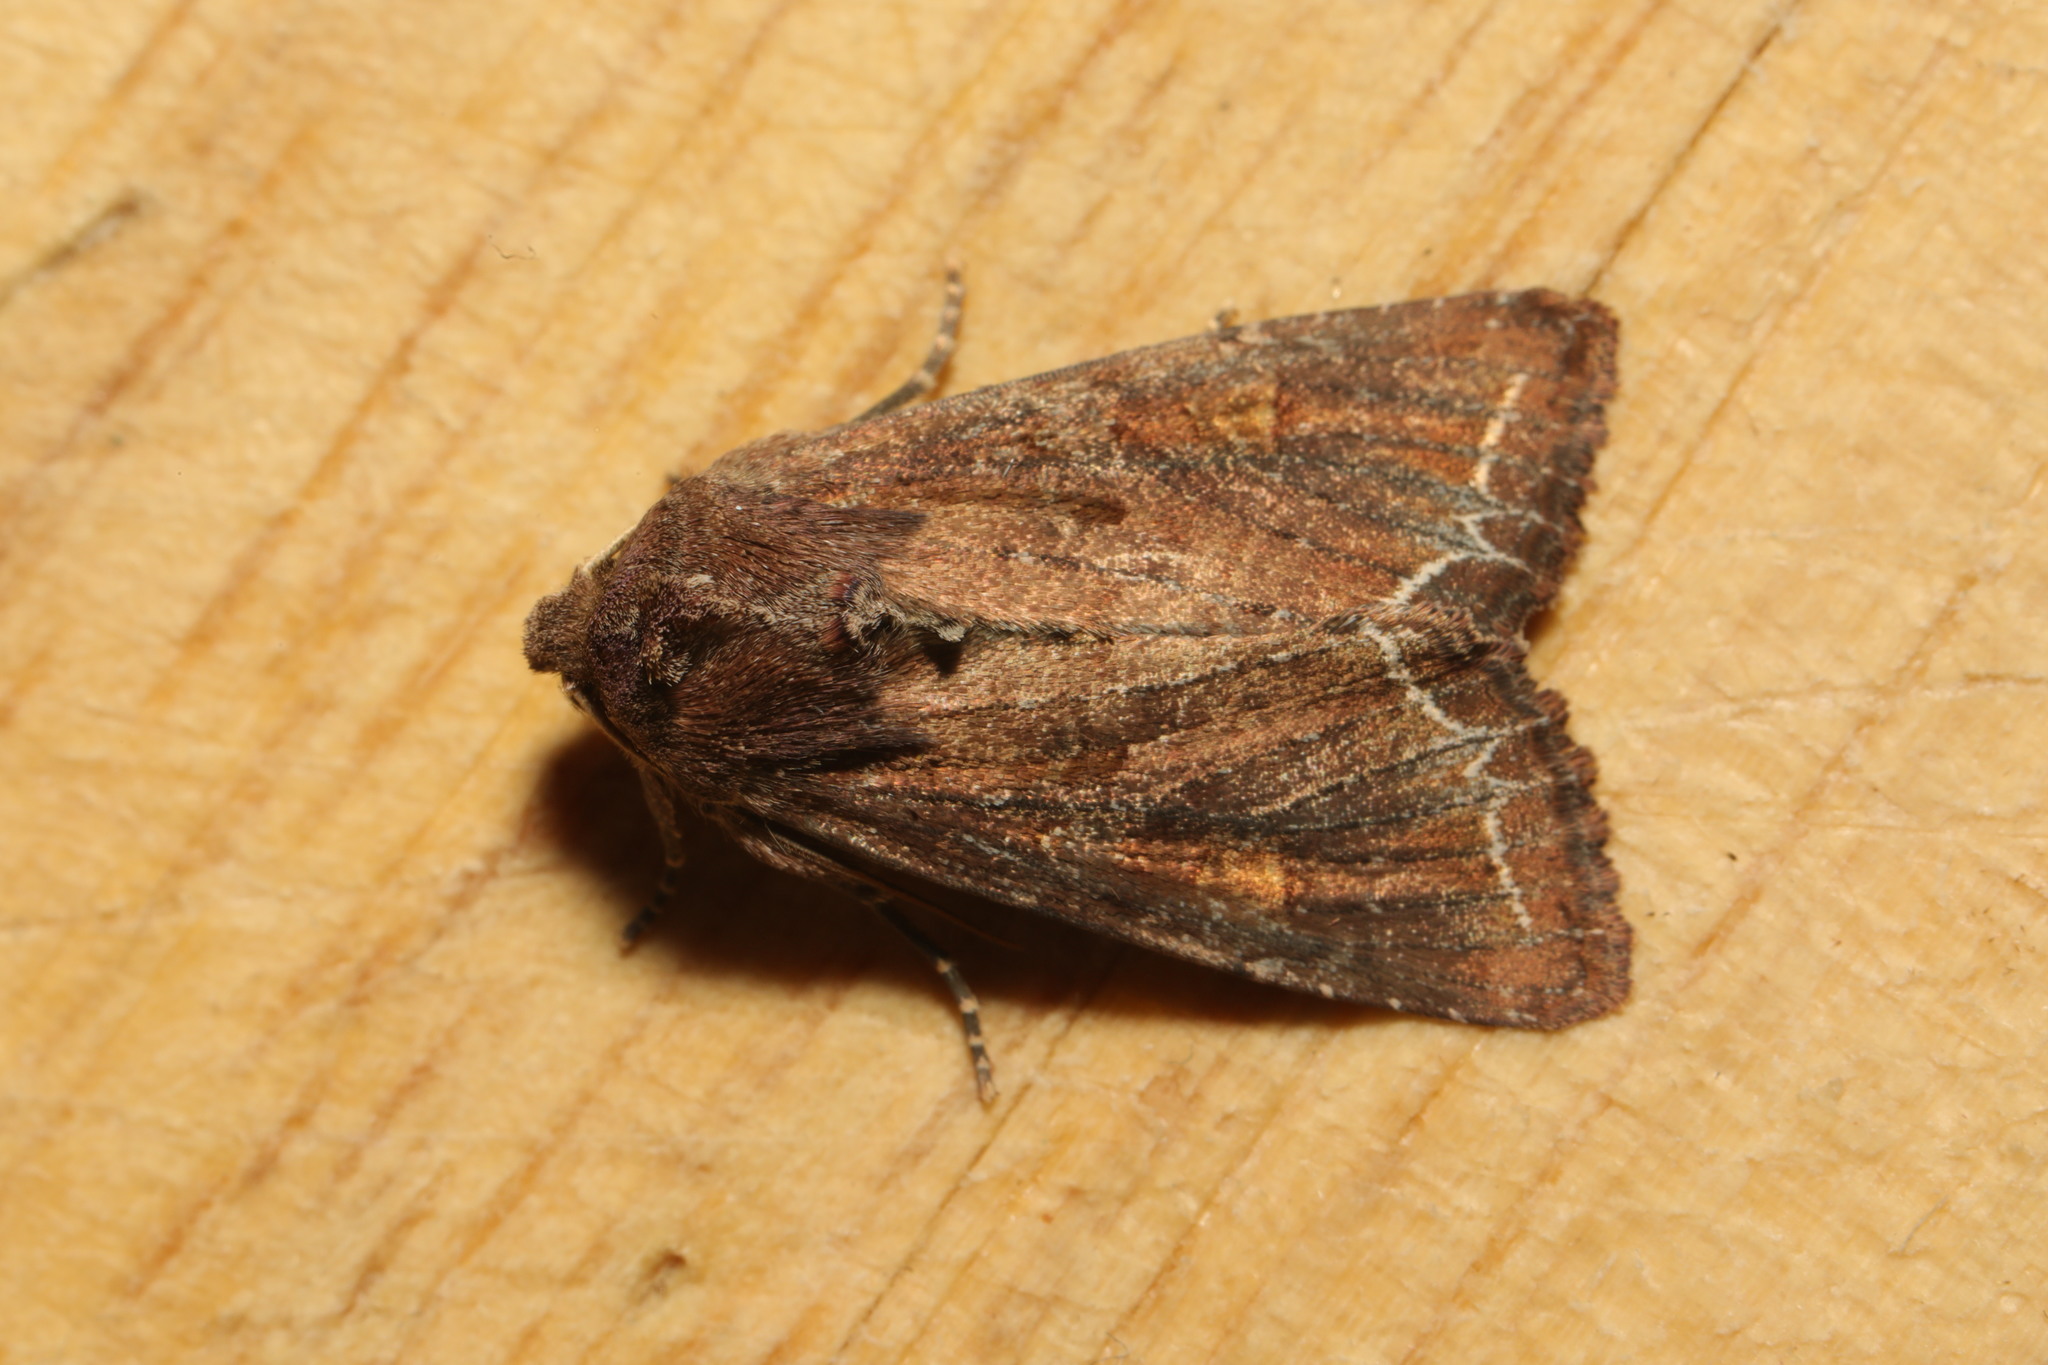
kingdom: Animalia
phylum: Arthropoda
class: Insecta
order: Lepidoptera
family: Noctuidae
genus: Lacanobia
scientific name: Lacanobia oleracea
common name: Bright-line brown-eye
